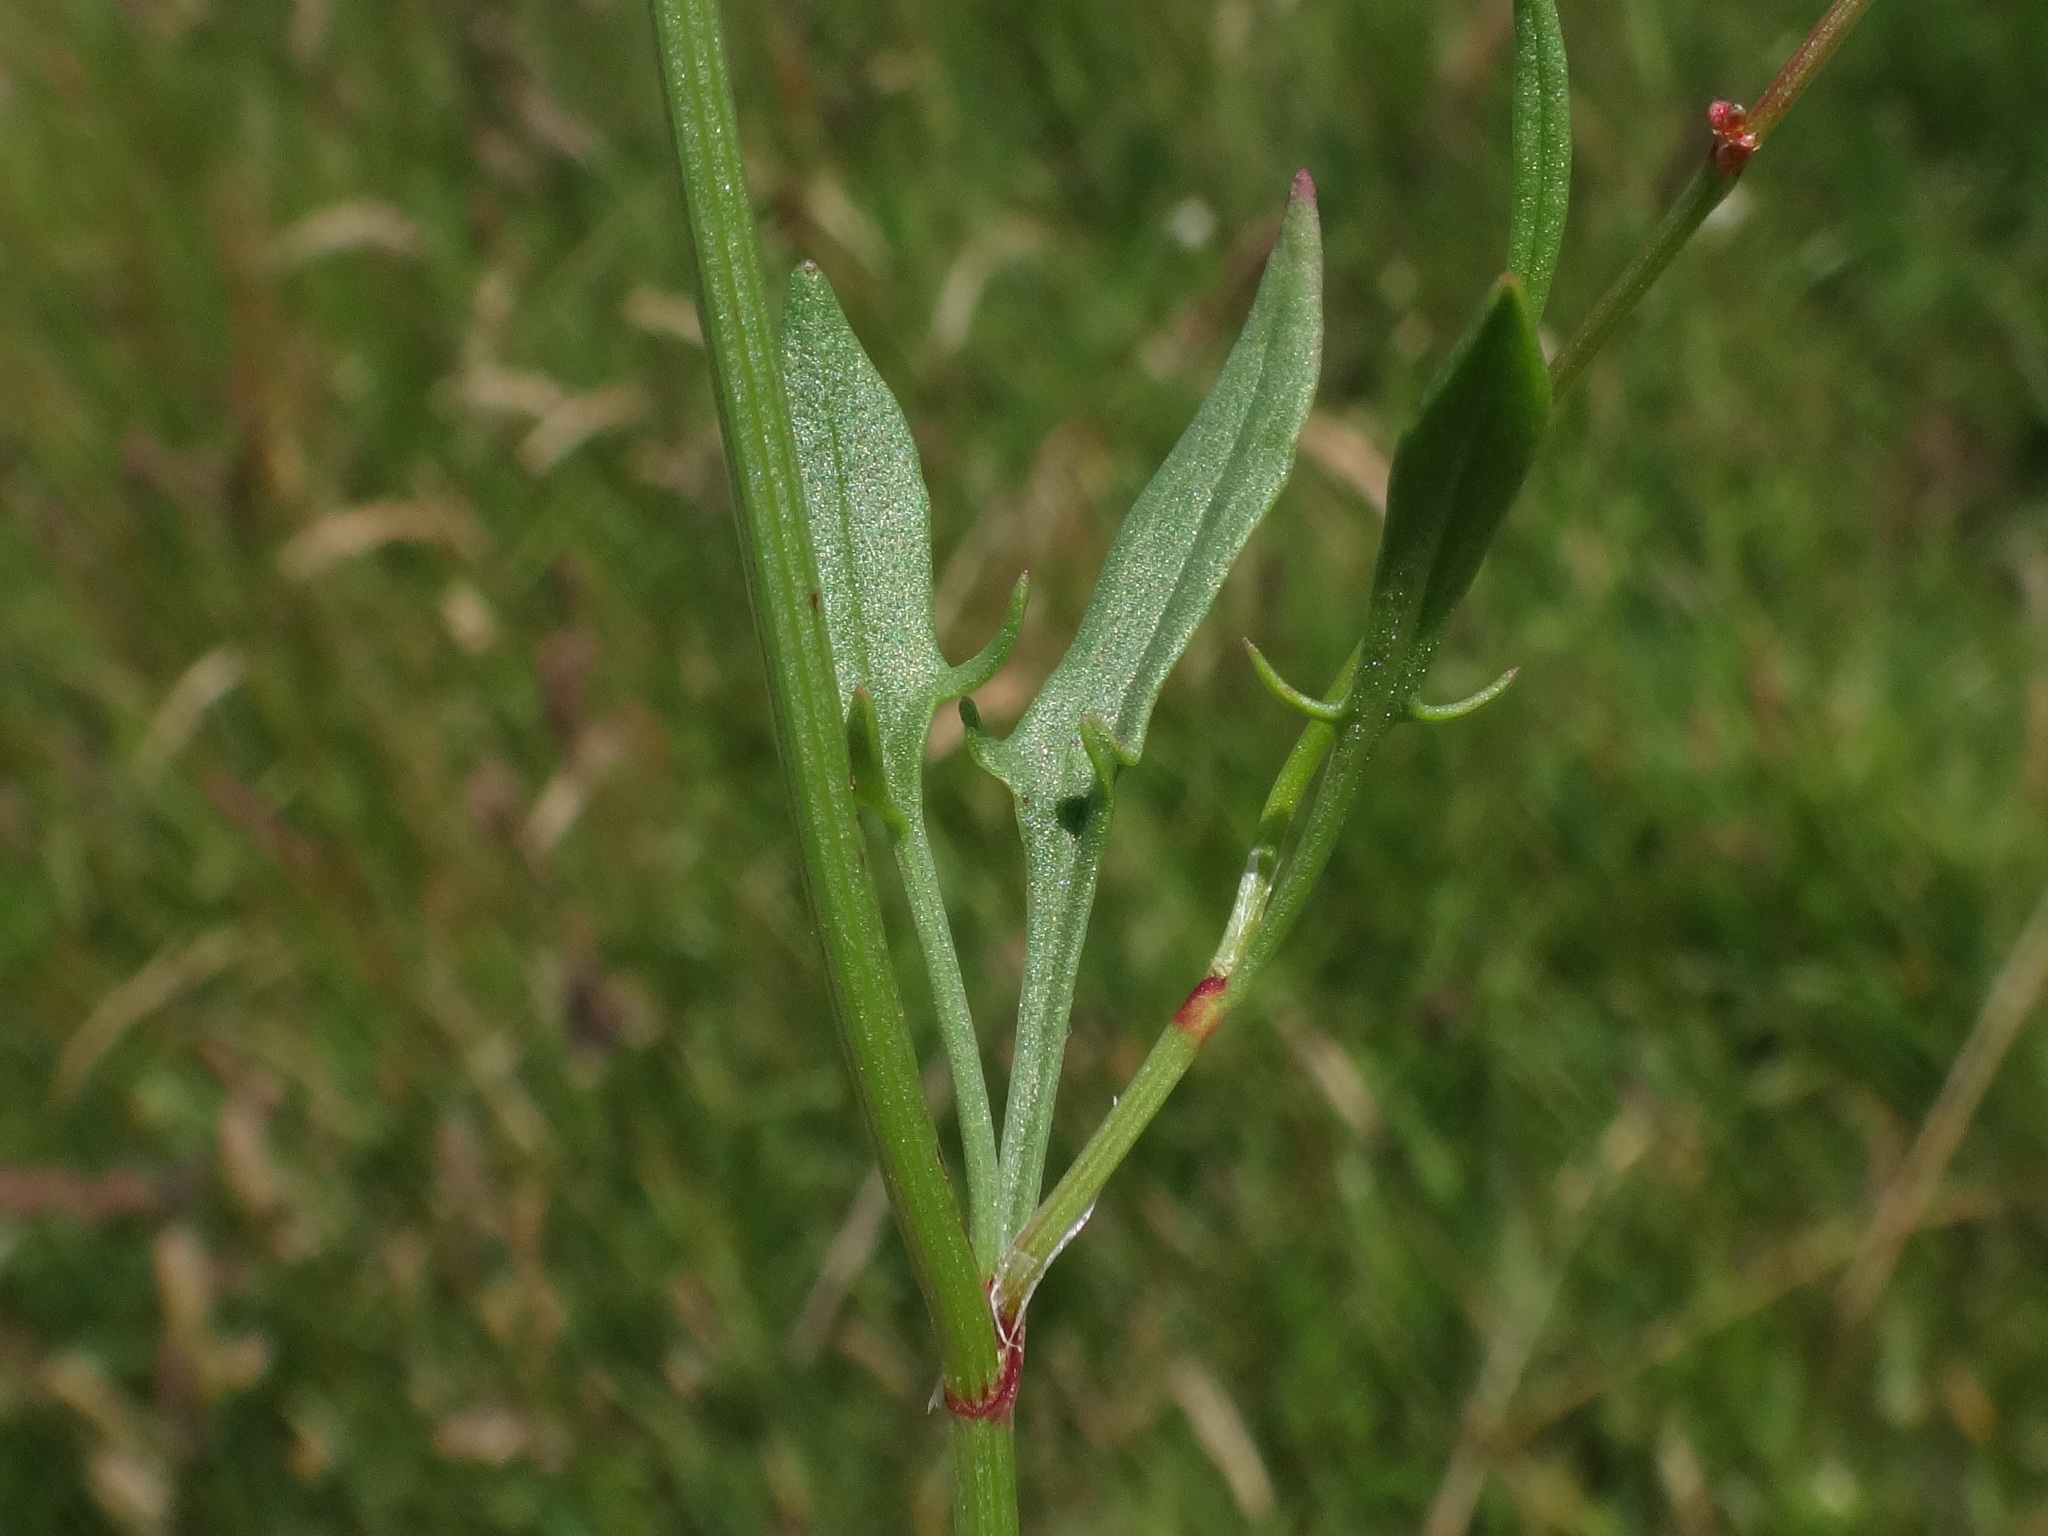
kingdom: Plantae
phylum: Tracheophyta
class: Magnoliopsida
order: Caryophyllales
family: Polygonaceae
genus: Rumex
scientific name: Rumex acetosella
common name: Common sheep sorrel
